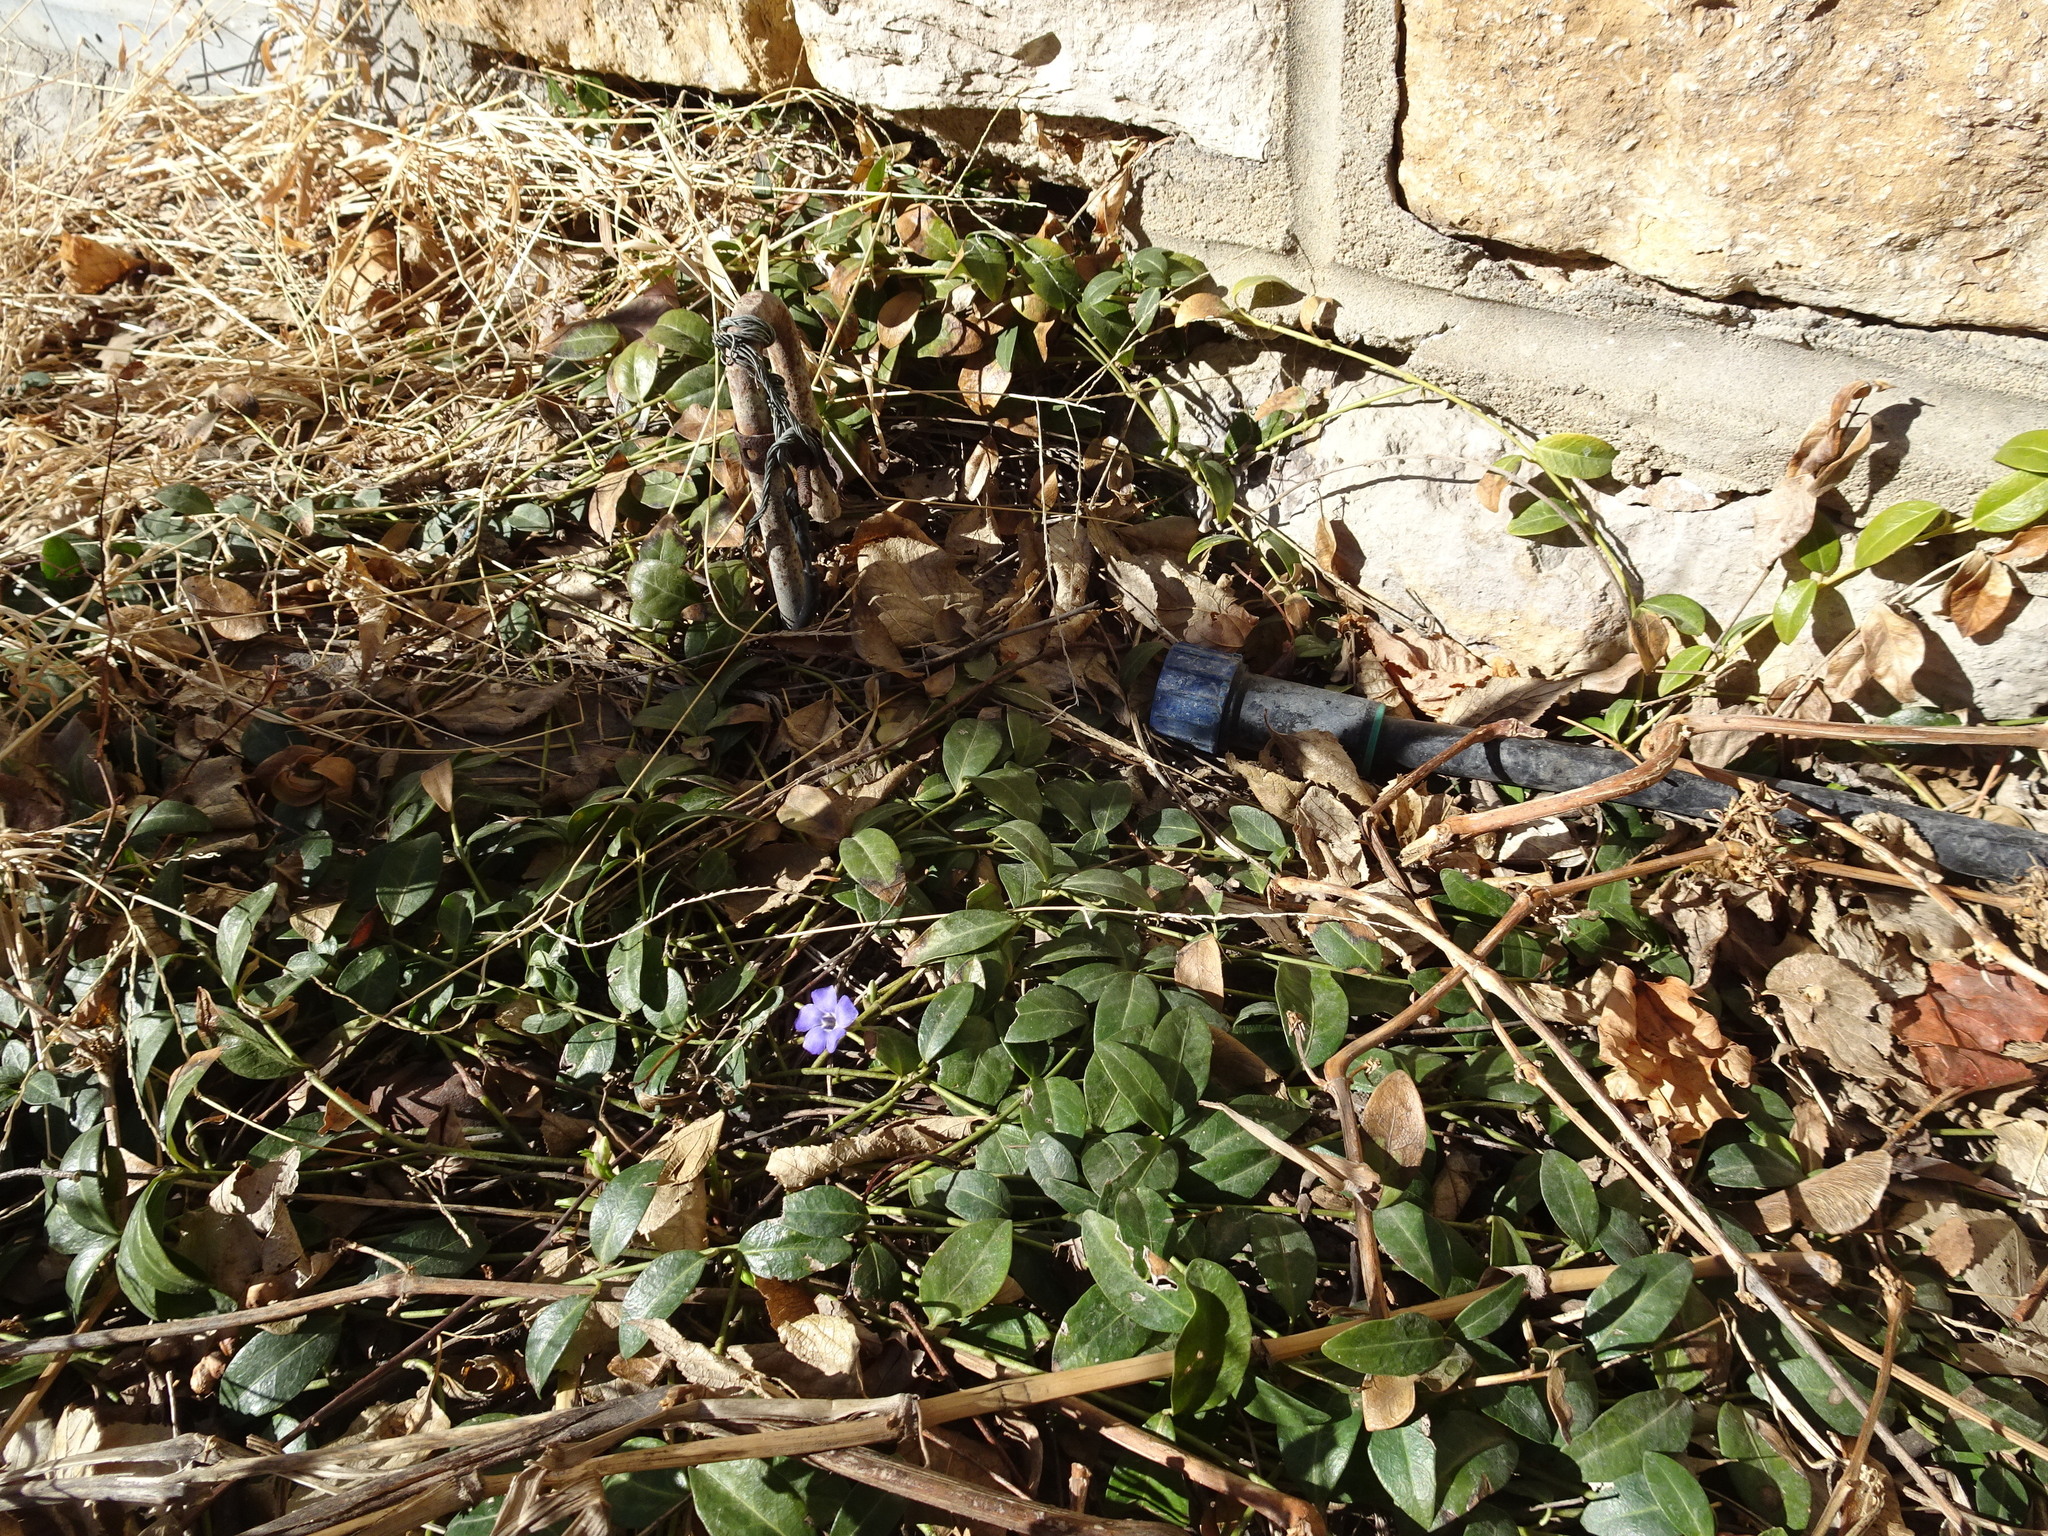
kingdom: Plantae
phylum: Tracheophyta
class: Magnoliopsida
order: Gentianales
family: Apocynaceae
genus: Vinca
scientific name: Vinca minor
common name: Lesser periwinkle
